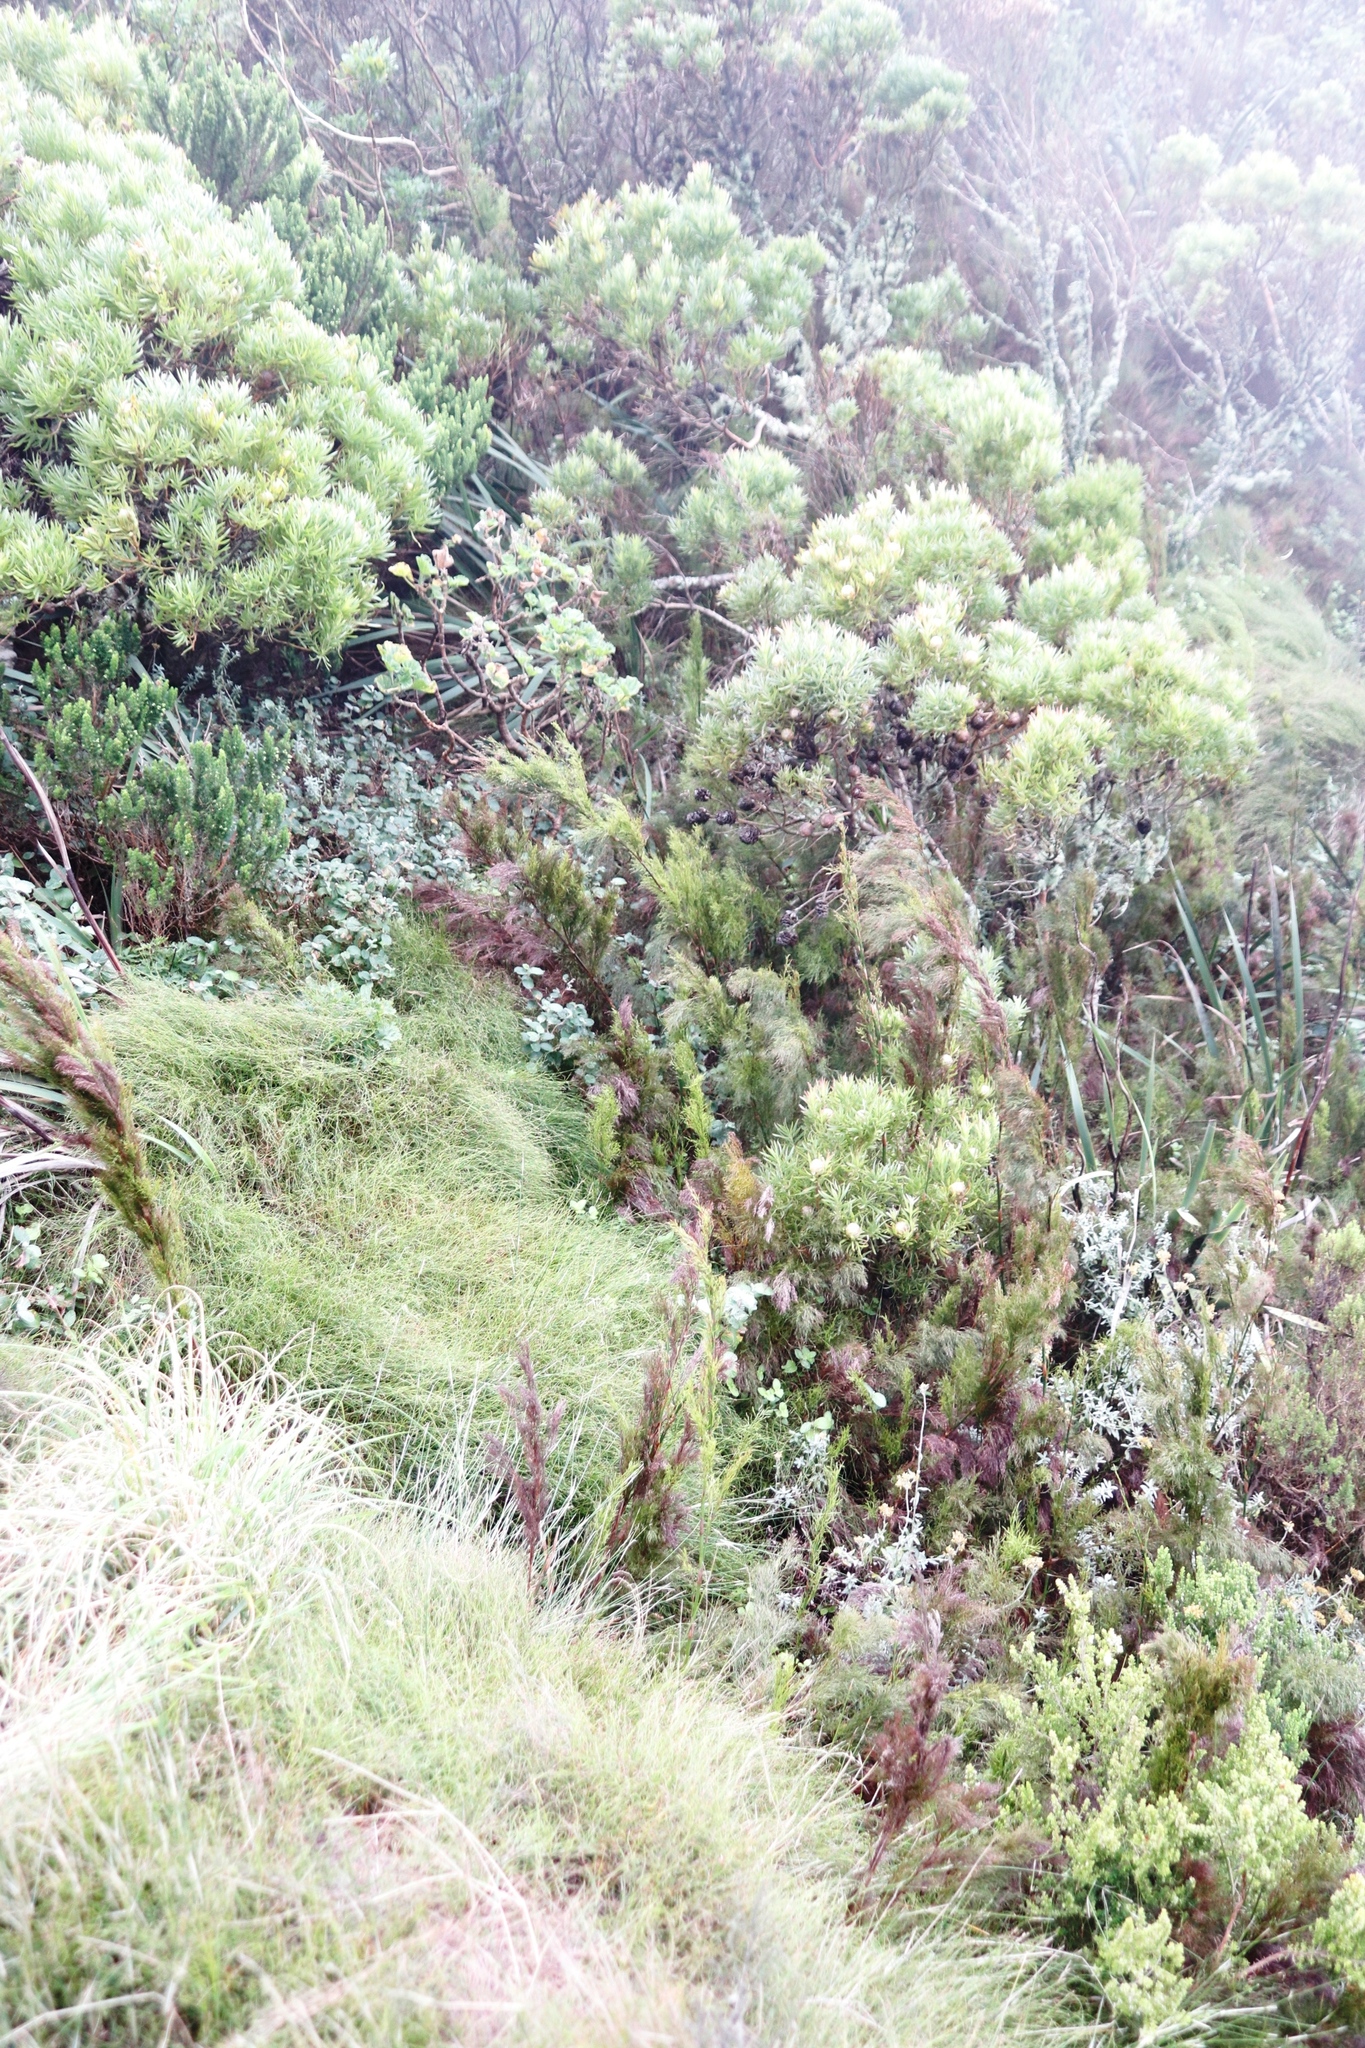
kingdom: Plantae
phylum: Tracheophyta
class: Magnoliopsida
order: Proteales
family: Proteaceae
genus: Leucadendron
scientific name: Leucadendron xanthoconus
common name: Sickle-leaf conebush
